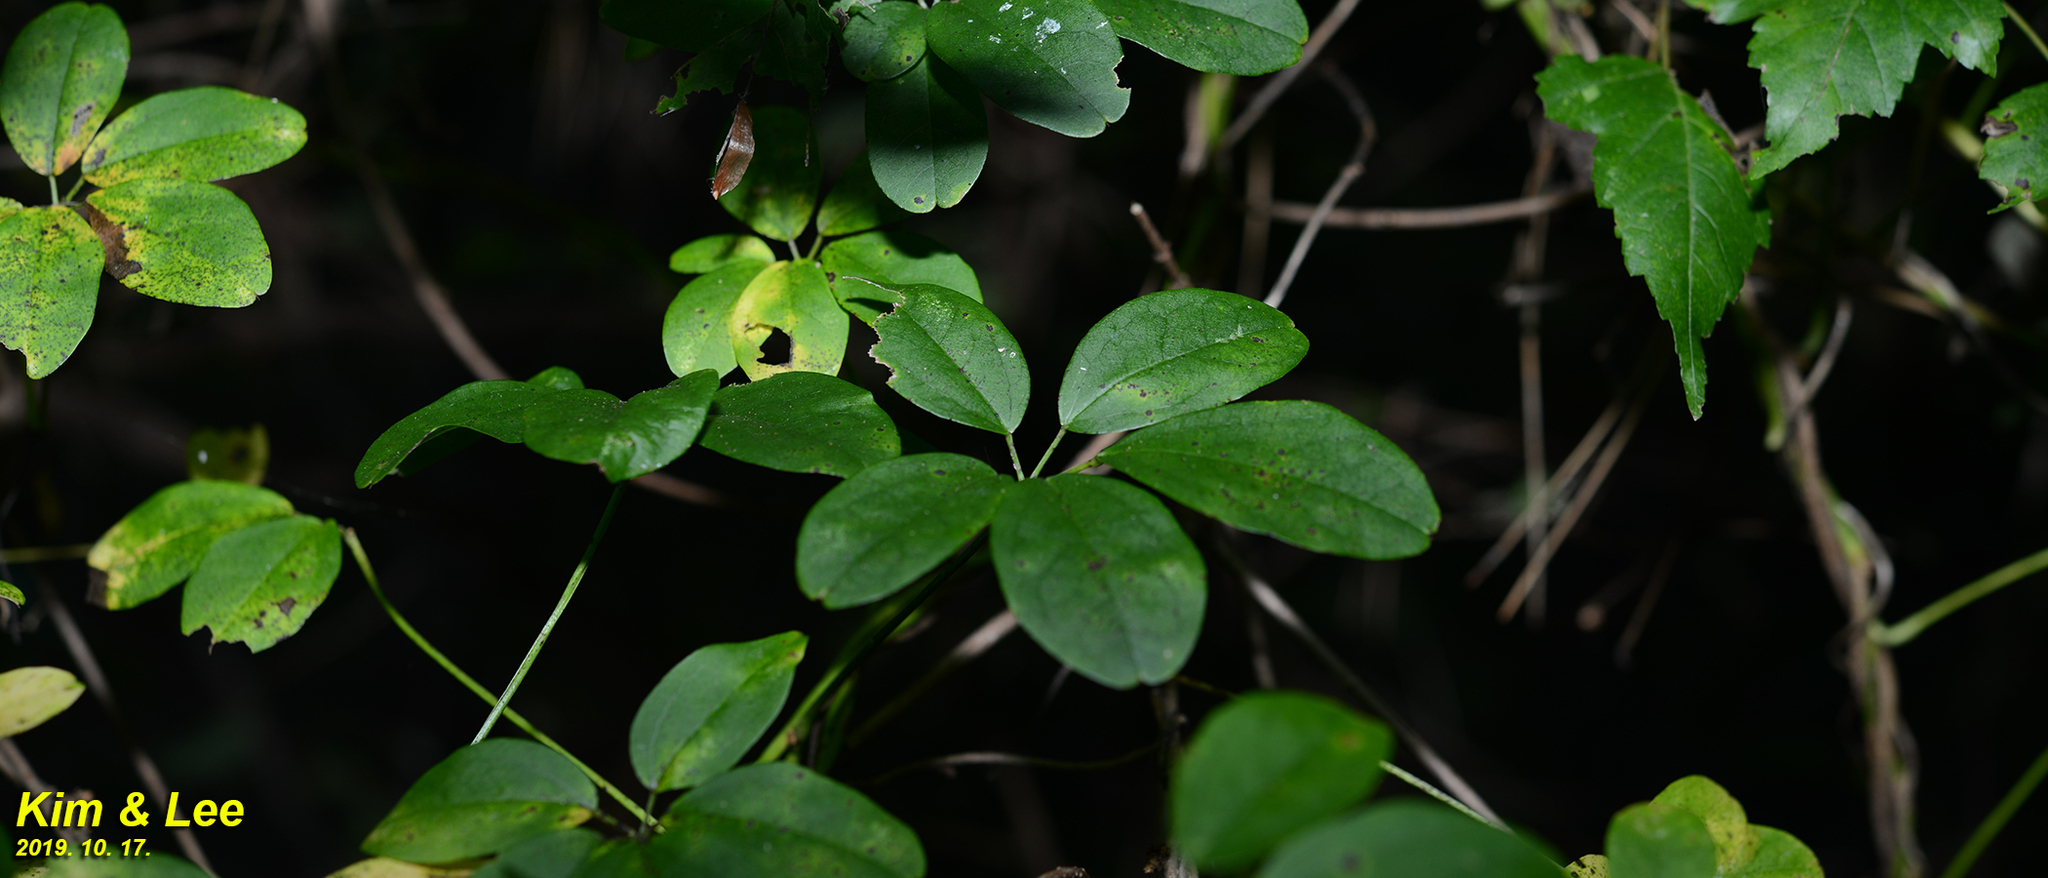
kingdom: Plantae
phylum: Tracheophyta
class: Magnoliopsida
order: Ranunculales
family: Lardizabalaceae
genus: Akebia
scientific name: Akebia quinata
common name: Five-leaf akebia
